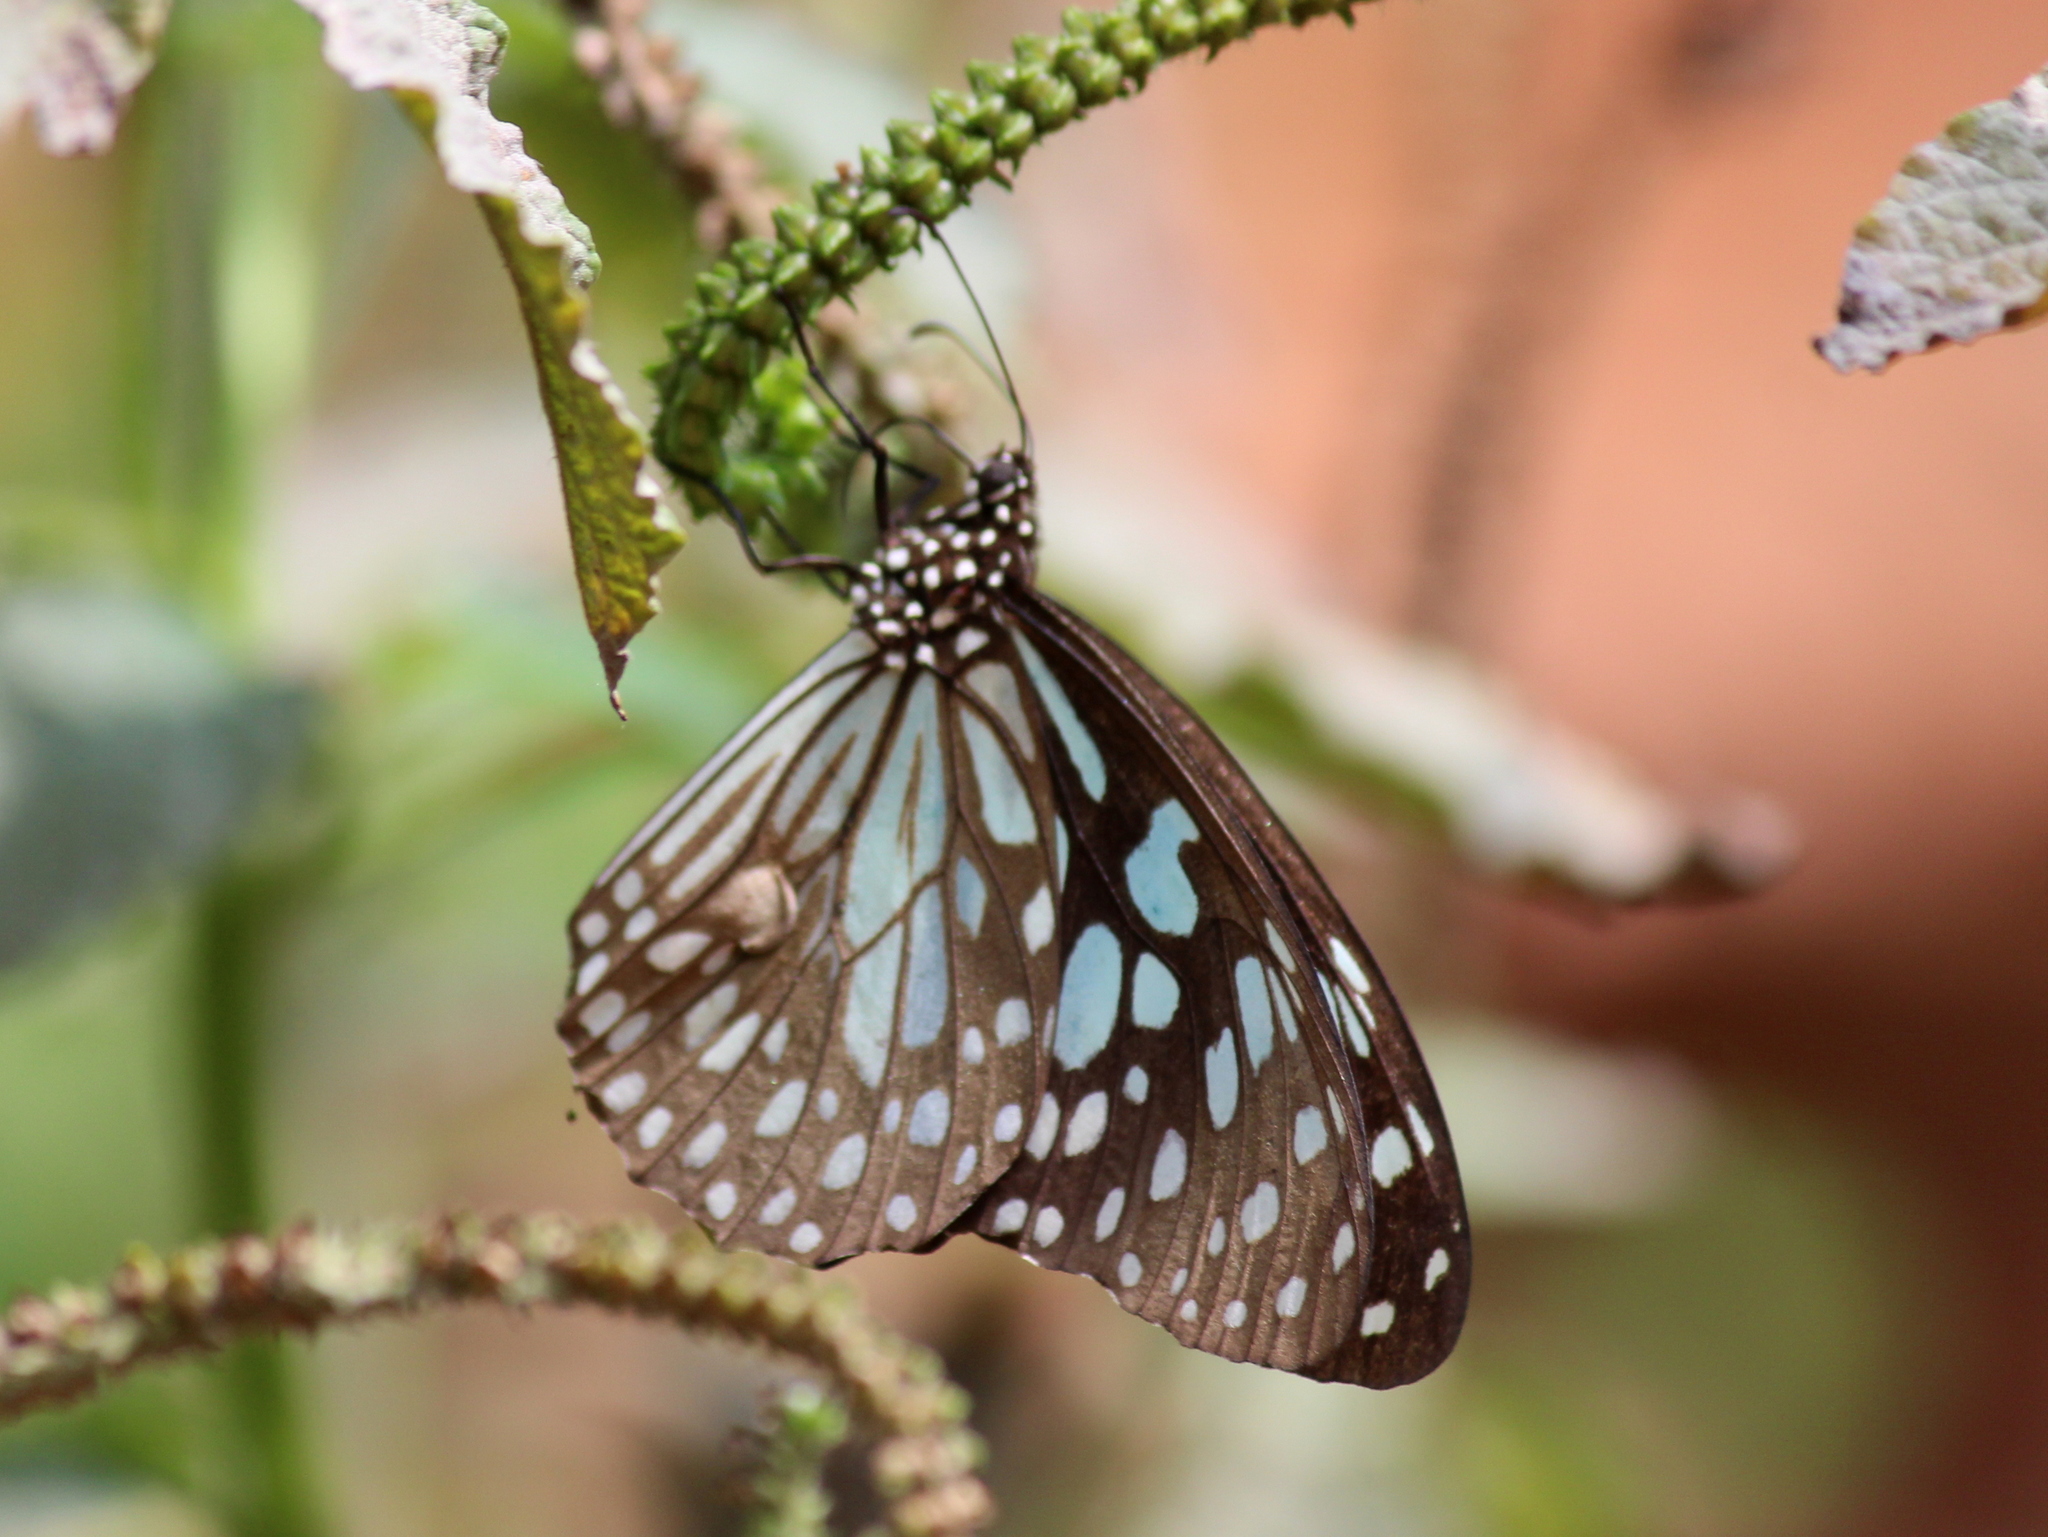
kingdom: Animalia
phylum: Arthropoda
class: Insecta
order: Lepidoptera
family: Nymphalidae
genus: Tirumala
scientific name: Tirumala limniace
